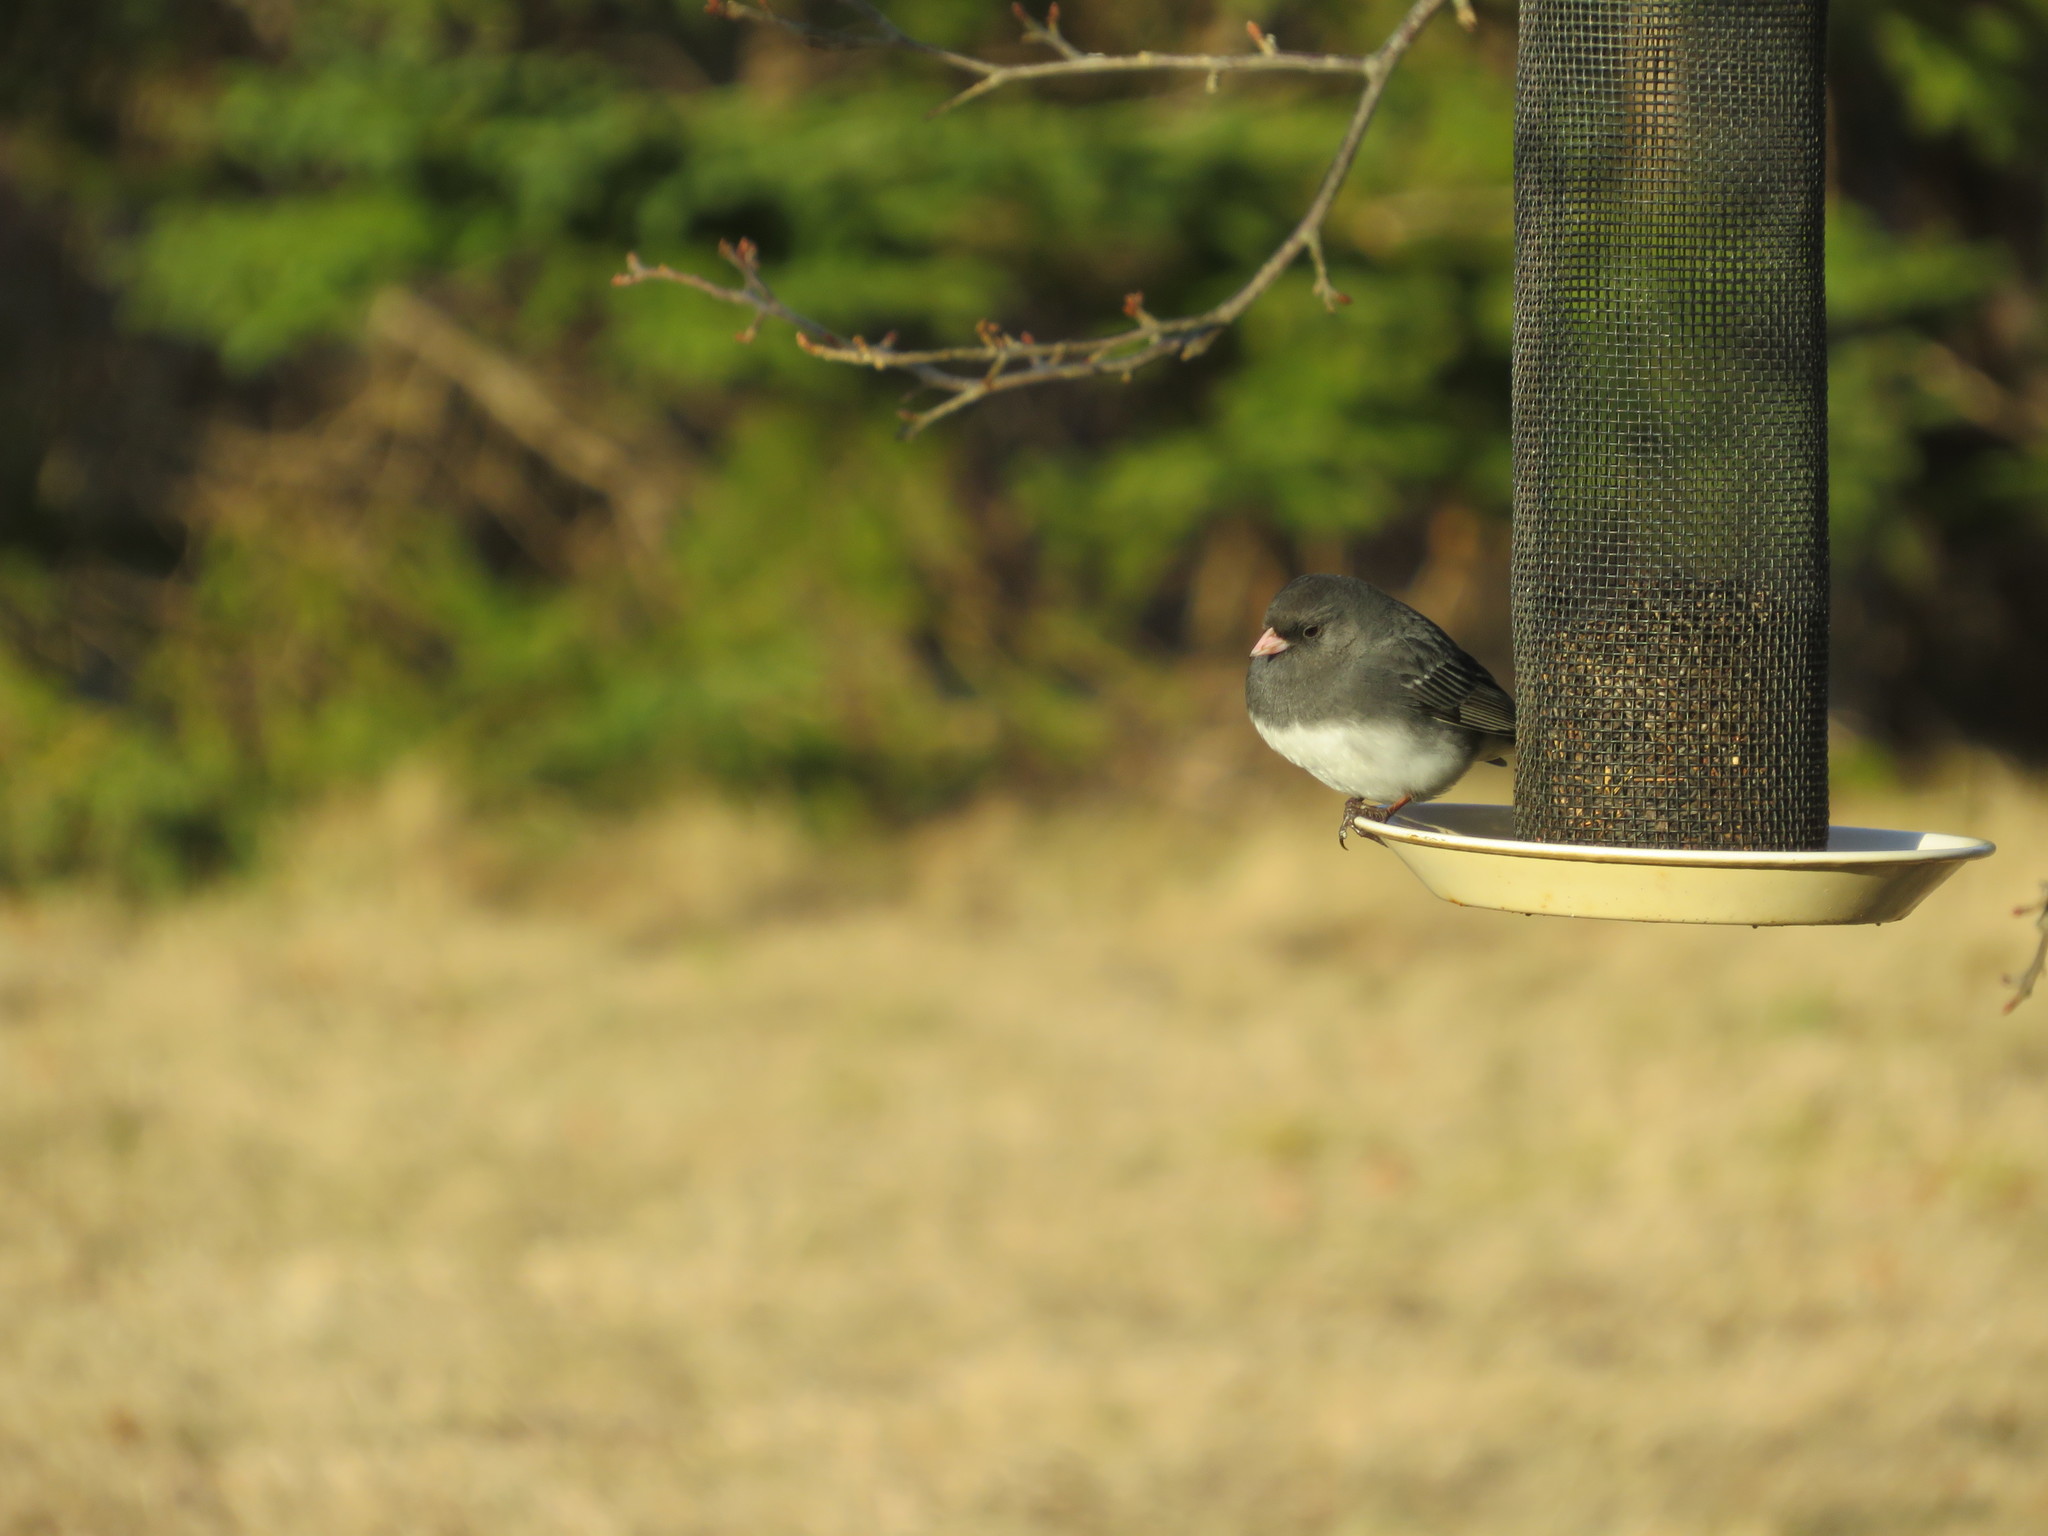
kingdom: Animalia
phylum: Chordata
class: Aves
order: Passeriformes
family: Passerellidae
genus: Junco
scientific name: Junco hyemalis
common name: Dark-eyed junco
